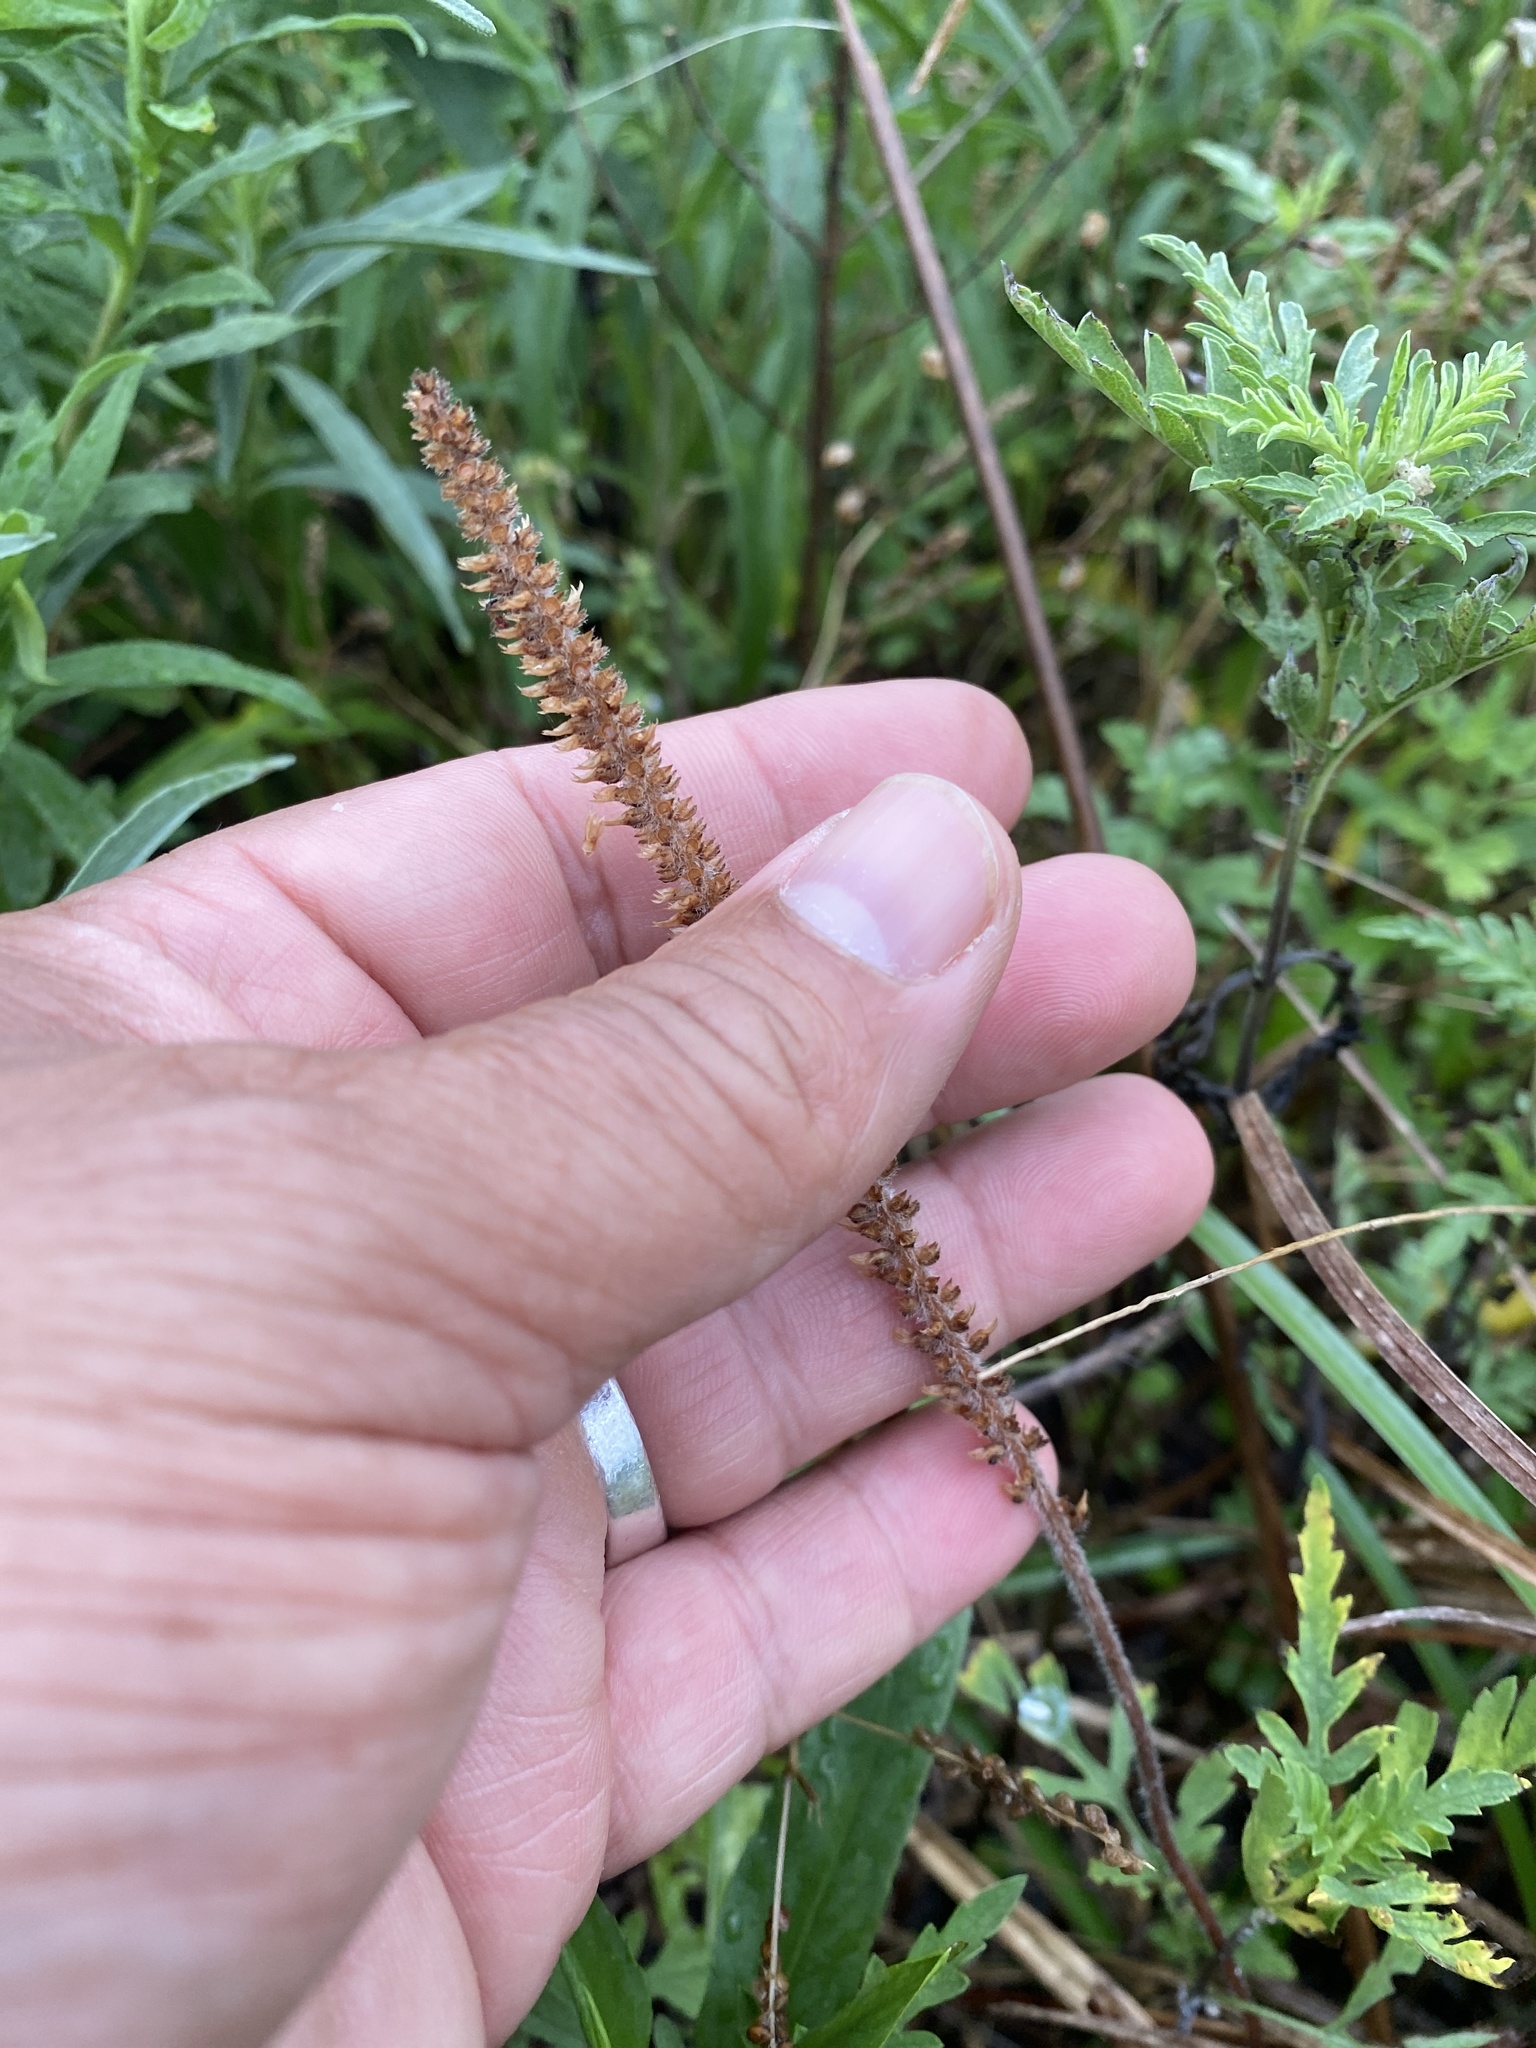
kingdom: Plantae
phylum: Tracheophyta
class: Magnoliopsida
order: Lamiales
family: Plantaginaceae
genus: Plantago
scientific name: Plantago virginica
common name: Hoary plantain
